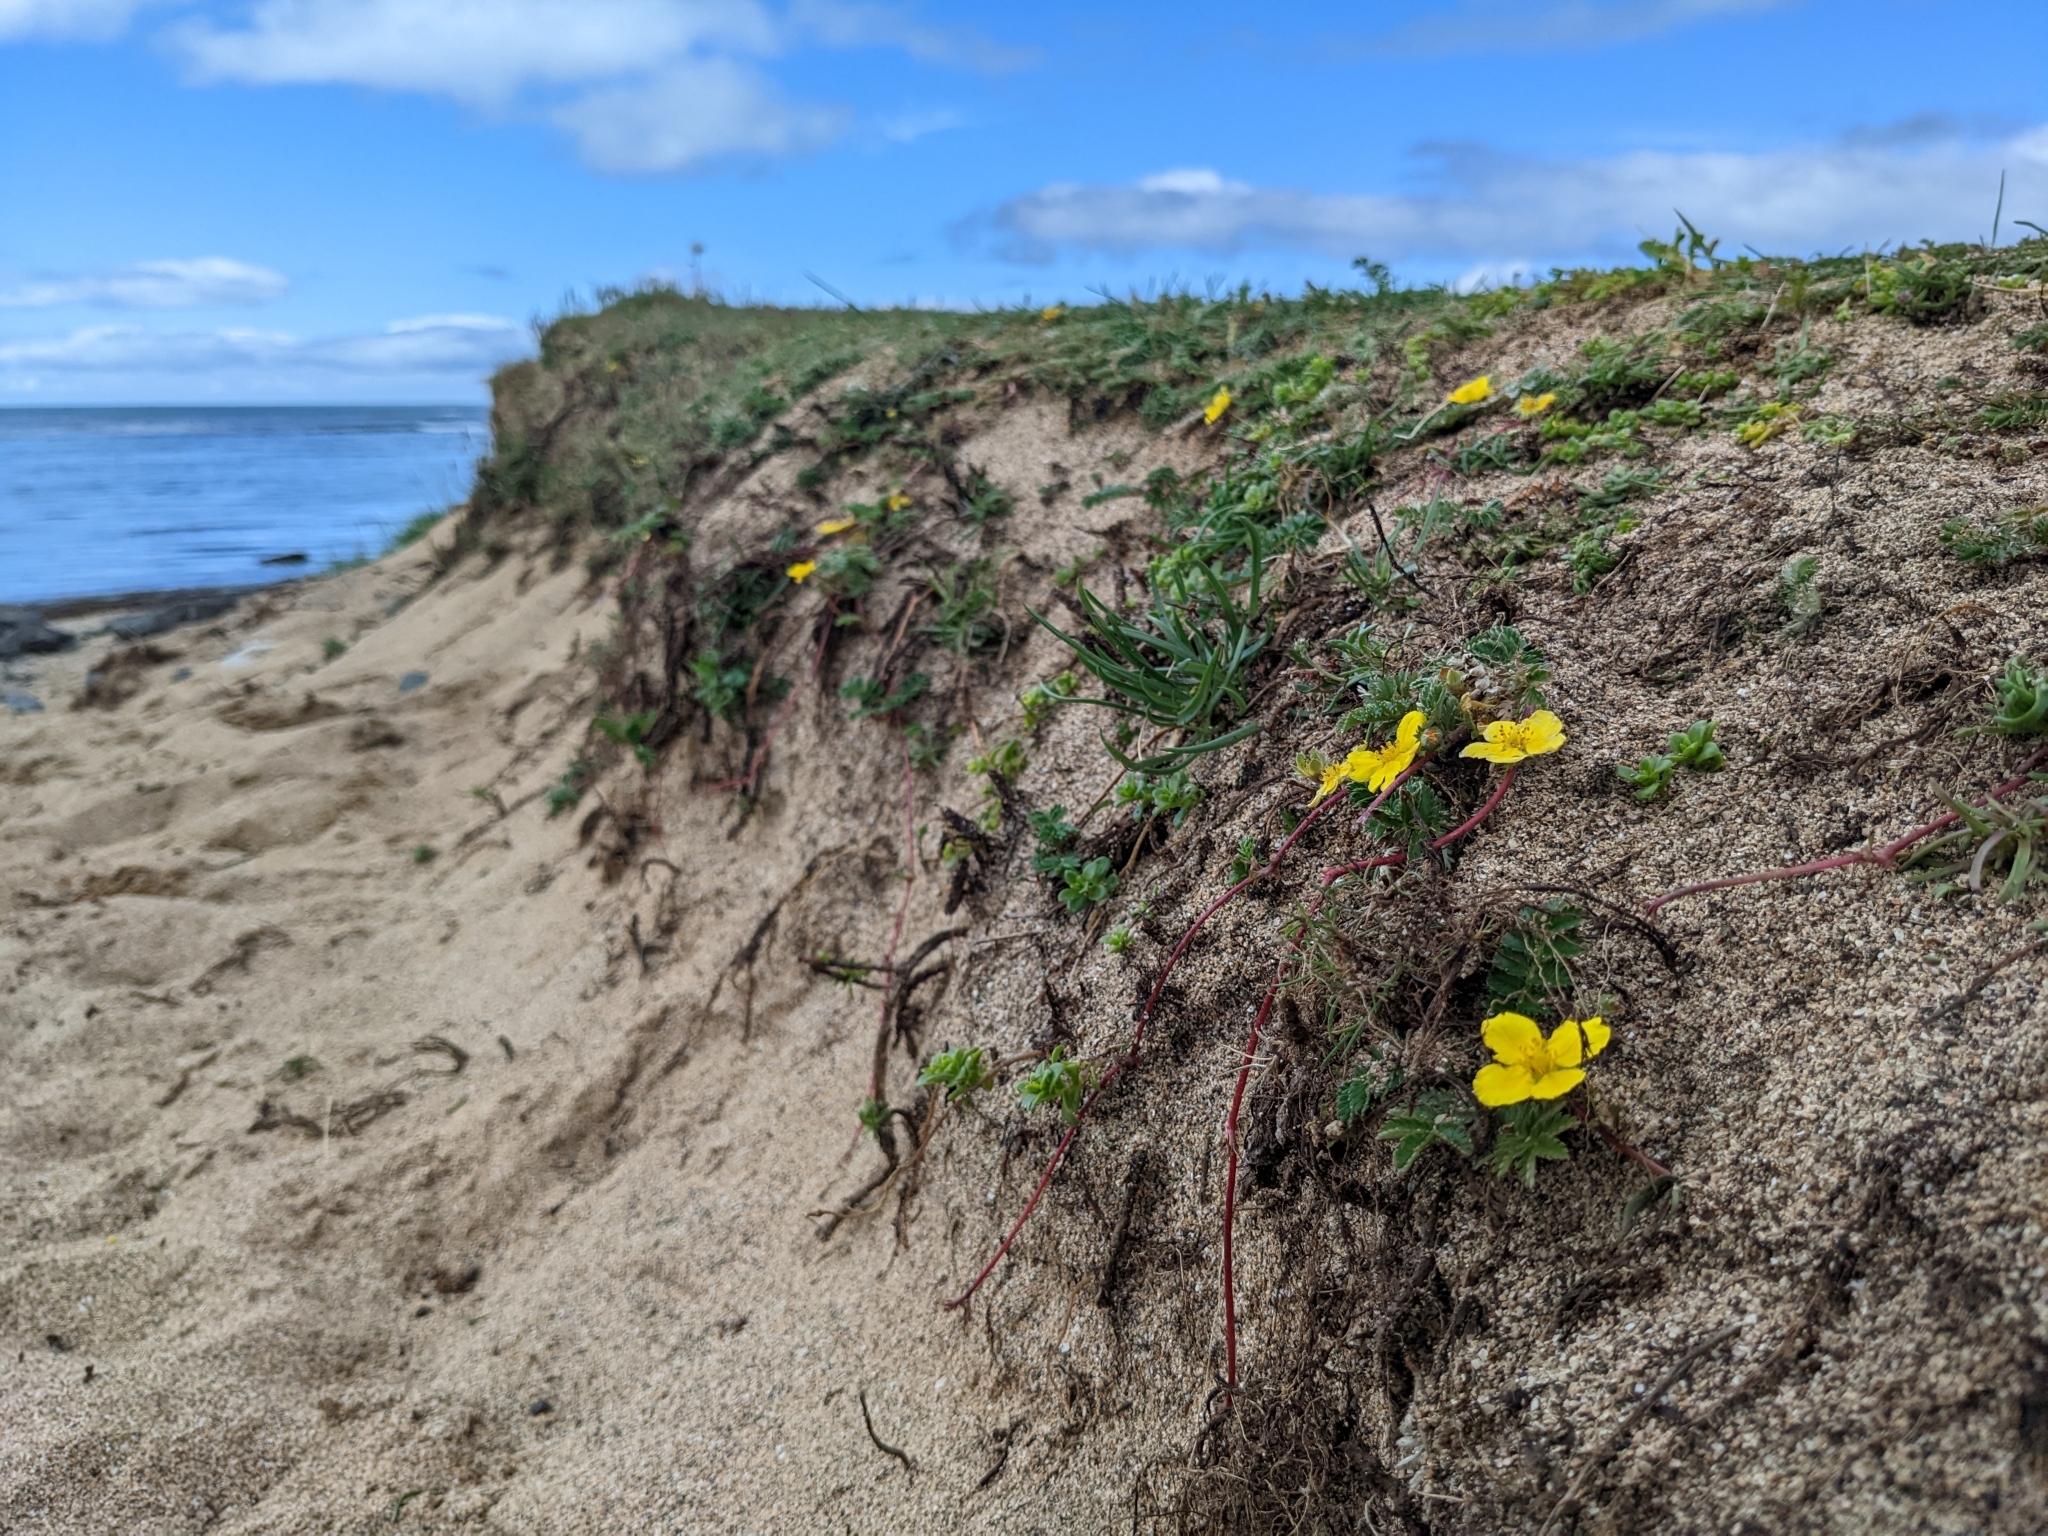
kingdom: Plantae
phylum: Tracheophyta
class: Magnoliopsida
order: Rosales
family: Rosaceae
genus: Argentina
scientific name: Argentina anserina
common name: Common silverweed
